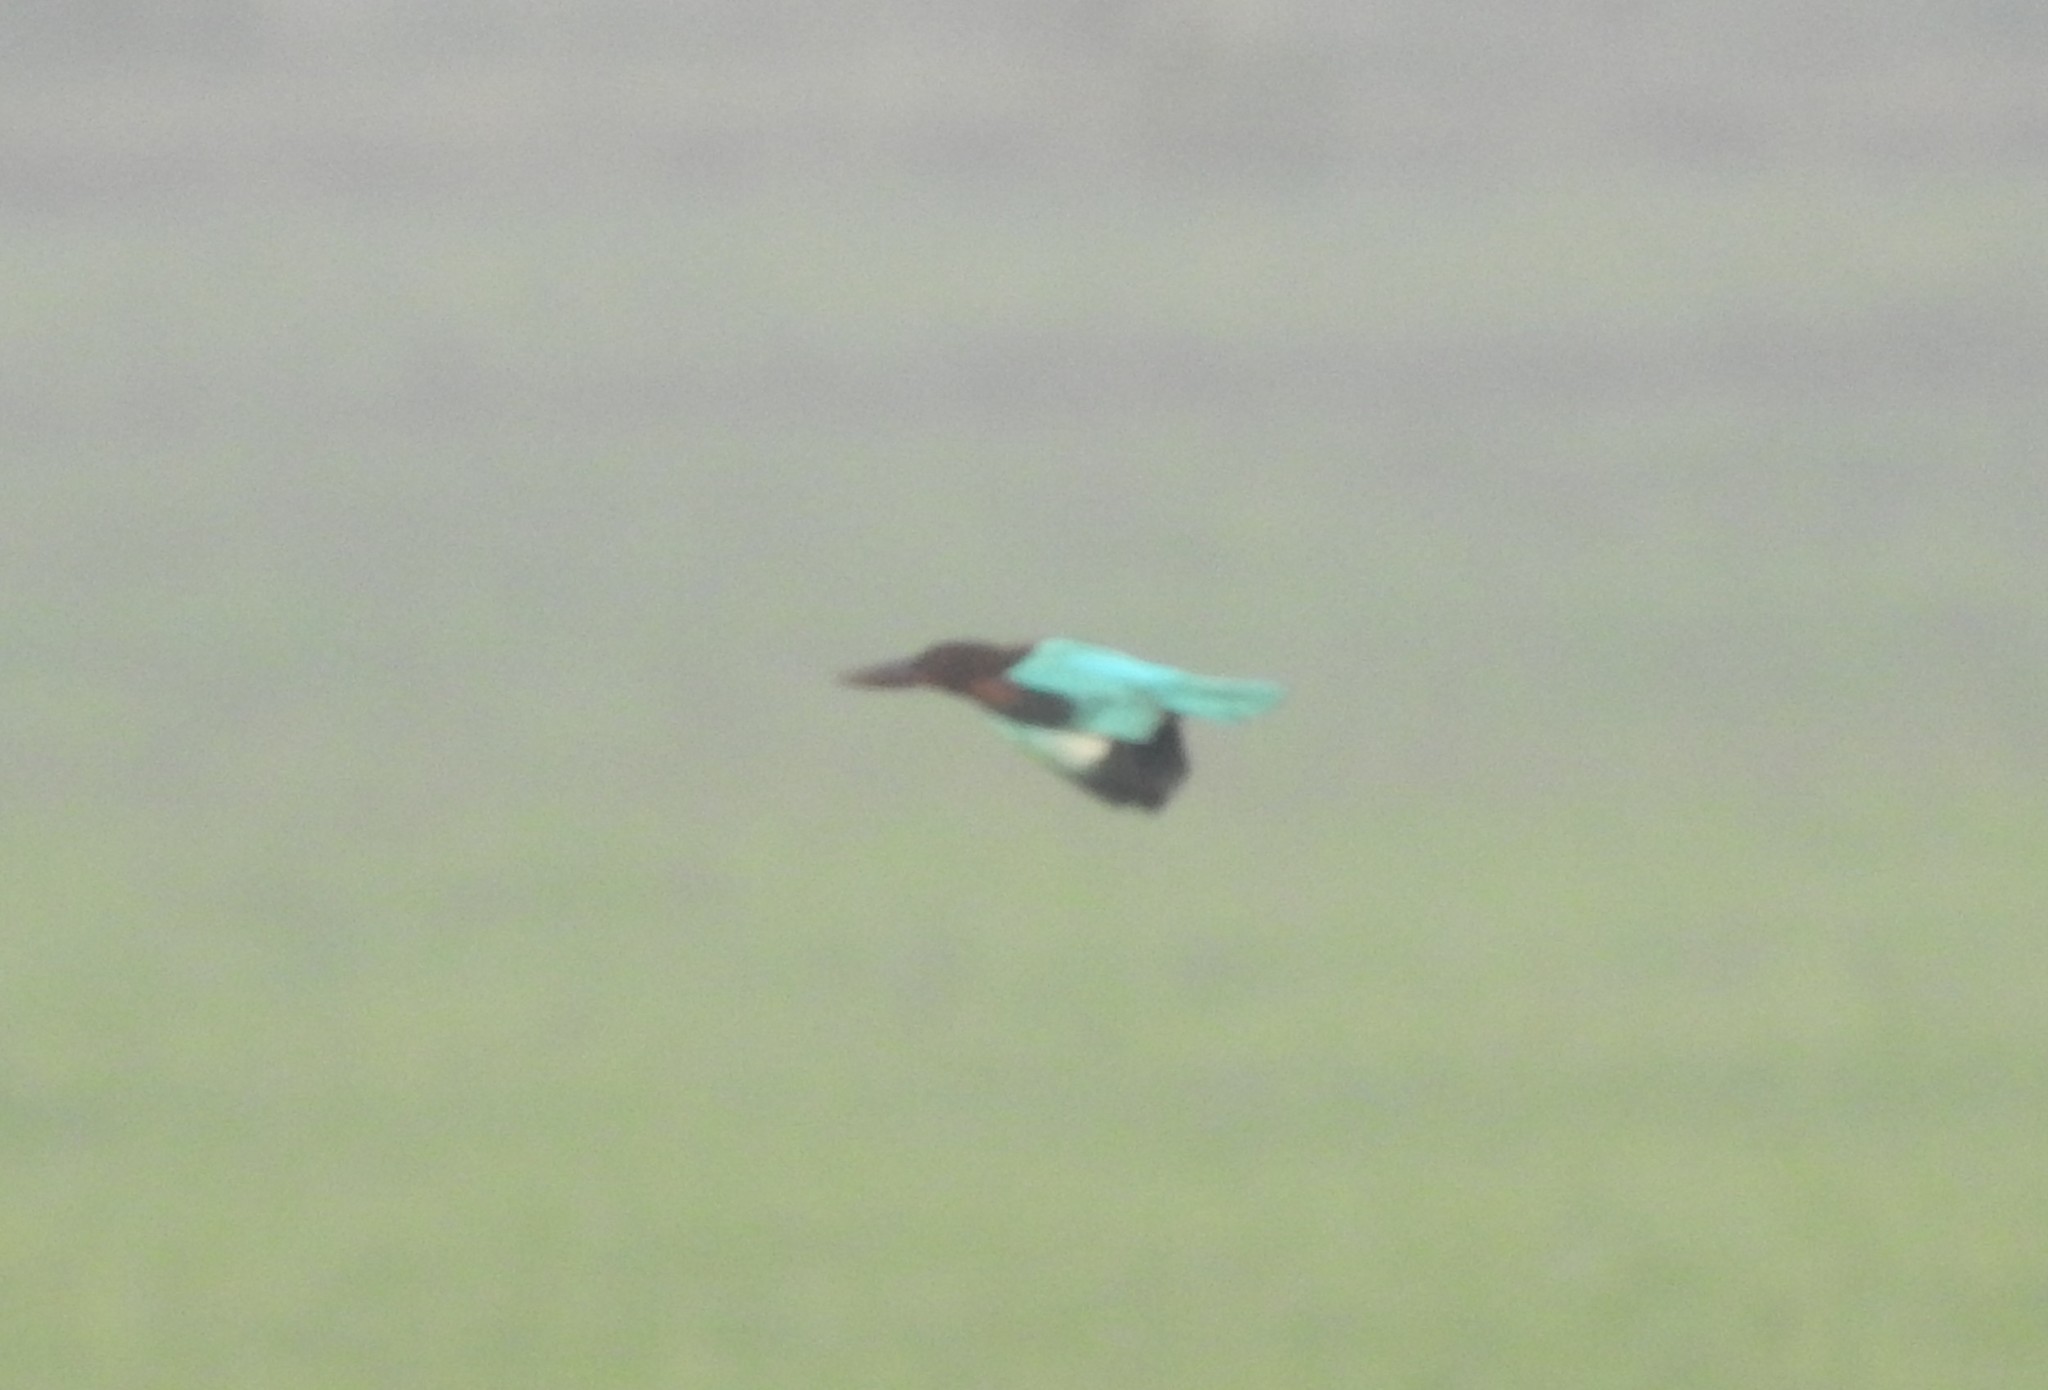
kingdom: Animalia
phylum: Chordata
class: Aves
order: Coraciiformes
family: Alcedinidae
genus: Halcyon
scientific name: Halcyon smyrnensis
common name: White-throated kingfisher
